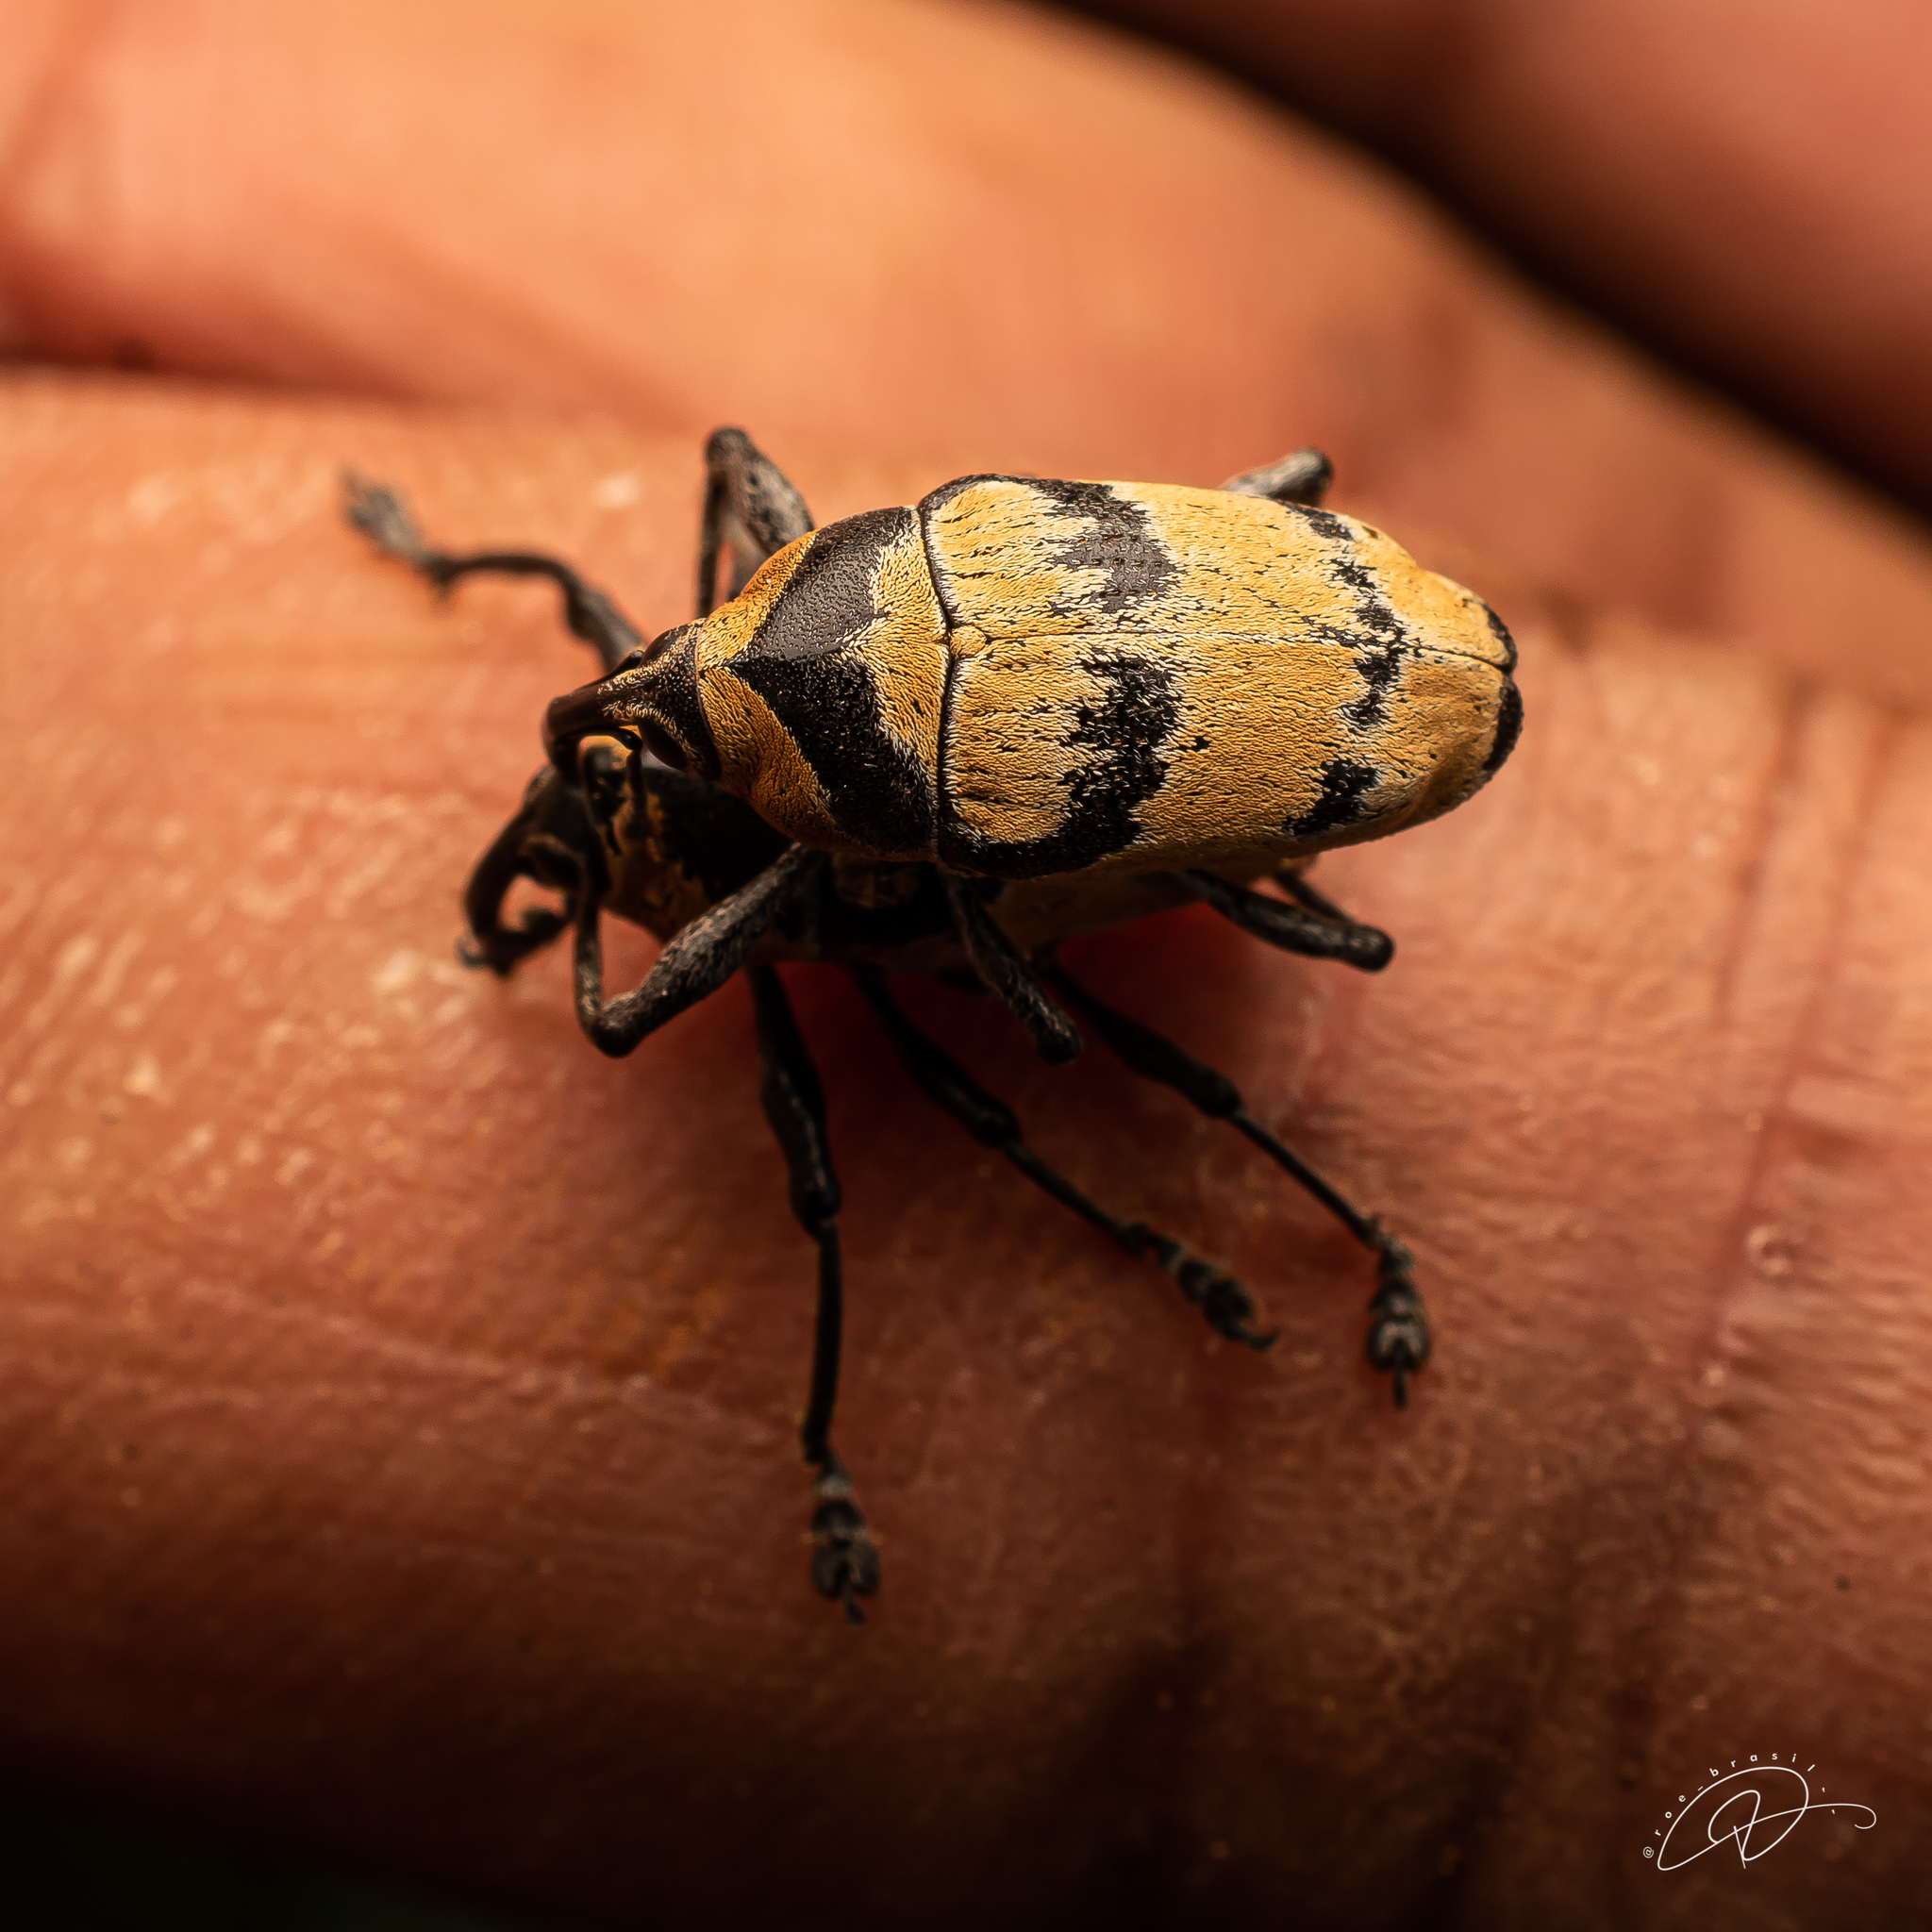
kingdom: Animalia
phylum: Arthropoda
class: Insecta
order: Coleoptera
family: Curculionidae
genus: Cholus
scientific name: Cholus annulatus
